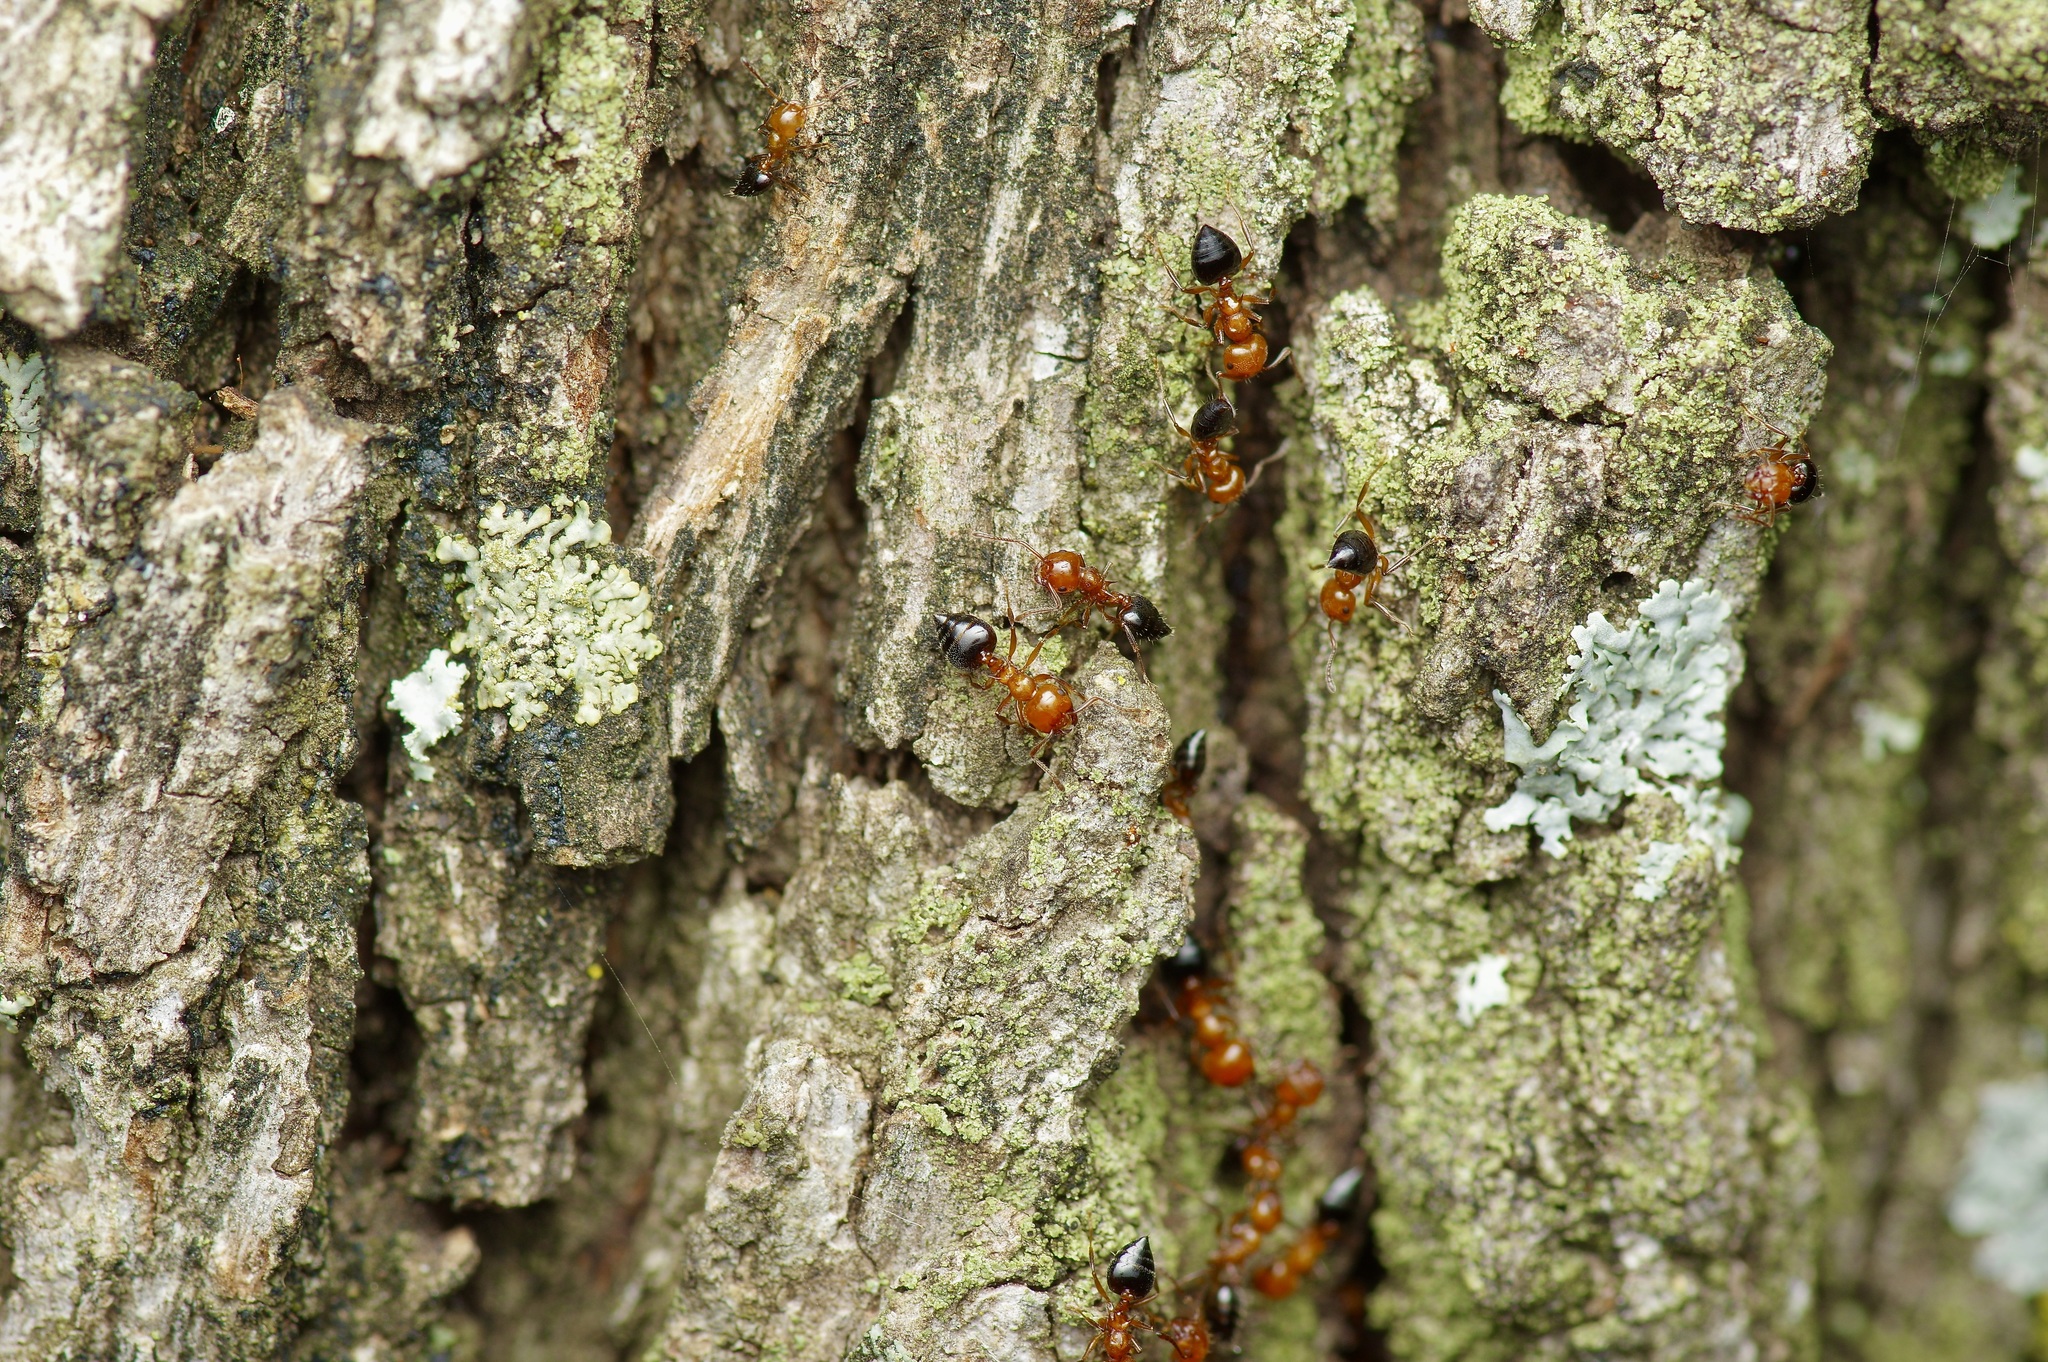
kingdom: Animalia
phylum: Arthropoda
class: Insecta
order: Hymenoptera
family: Formicidae
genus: Crematogaster
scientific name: Crematogaster laeviuscula
